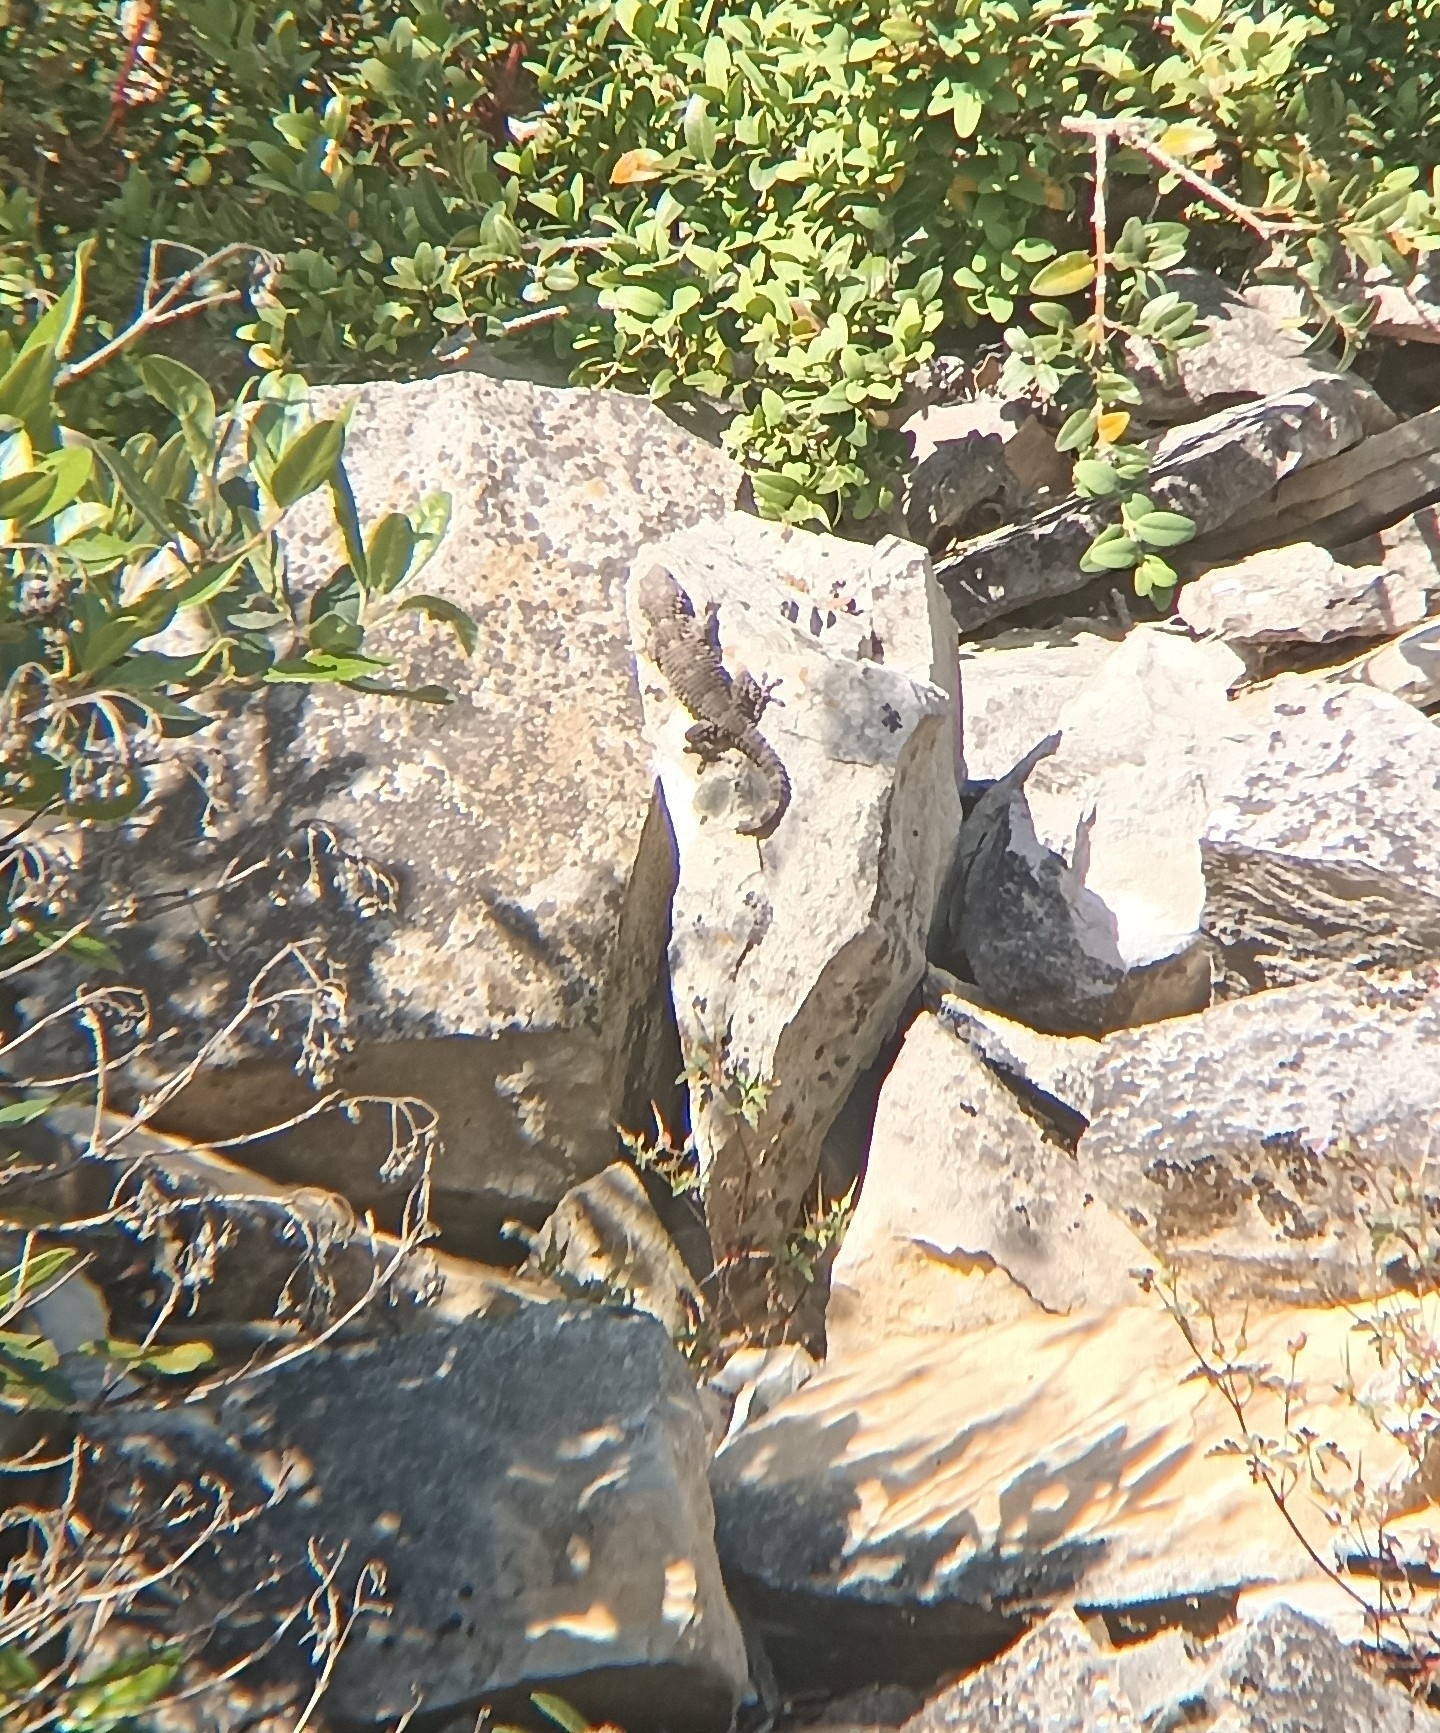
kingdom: Animalia
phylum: Chordata
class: Squamata
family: Phyllodactylidae
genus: Tarentola
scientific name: Tarentola mauritanica
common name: Moorish gecko
